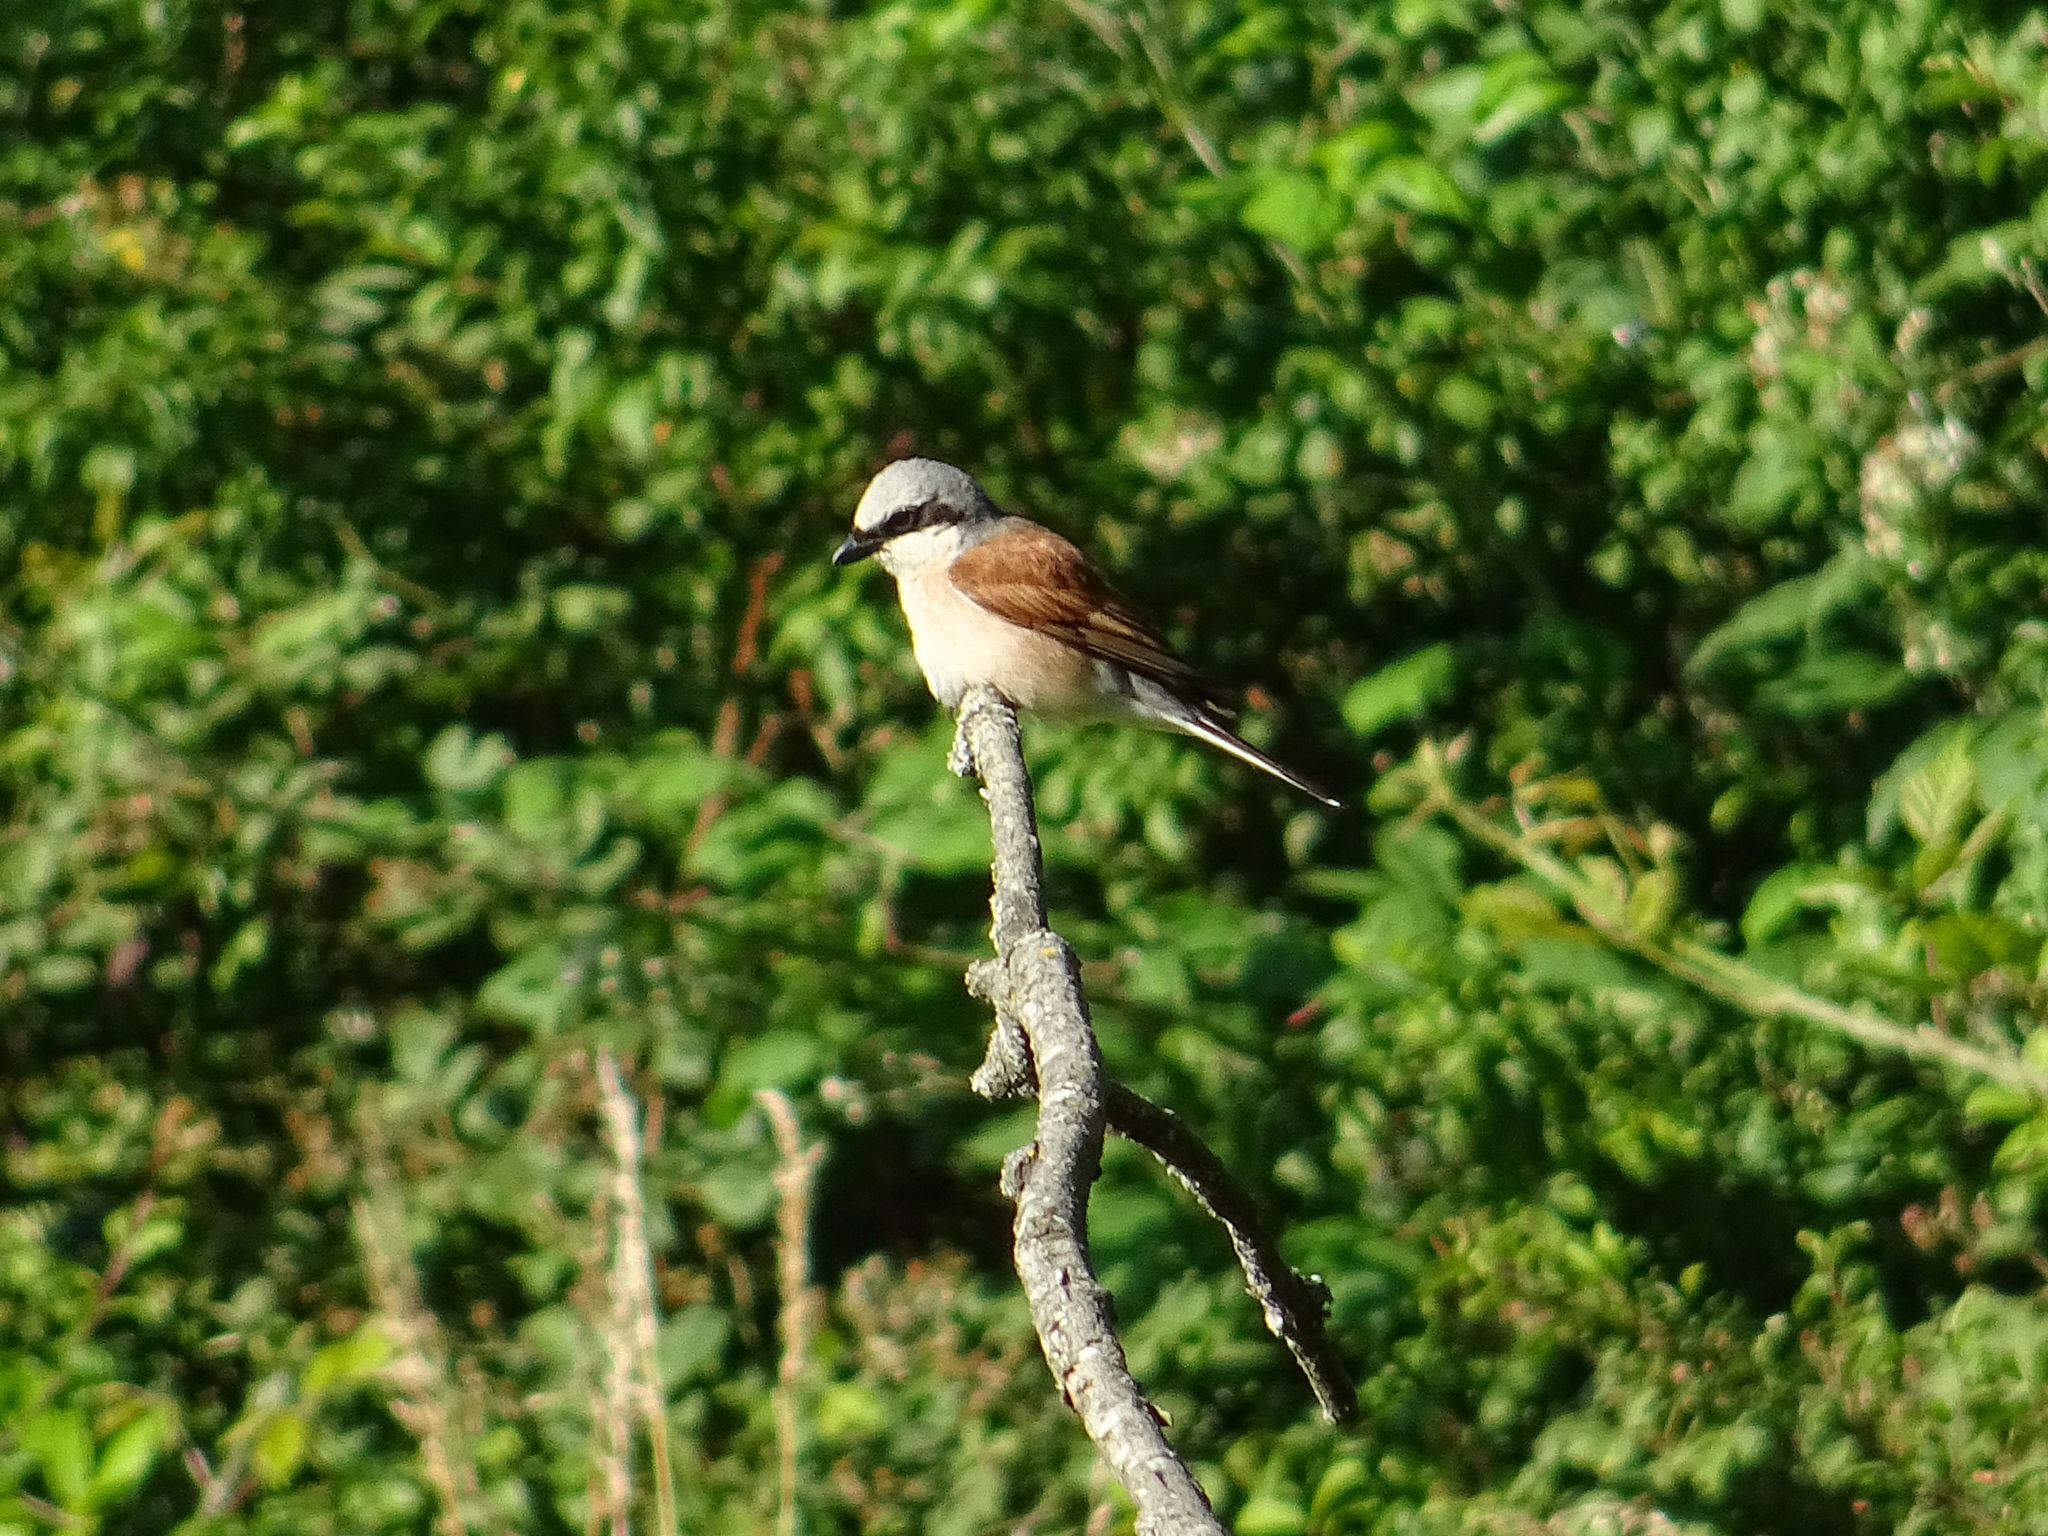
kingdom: Animalia
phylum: Chordata
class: Aves
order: Passeriformes
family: Laniidae
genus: Lanius
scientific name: Lanius collurio
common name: Red-backed shrike
